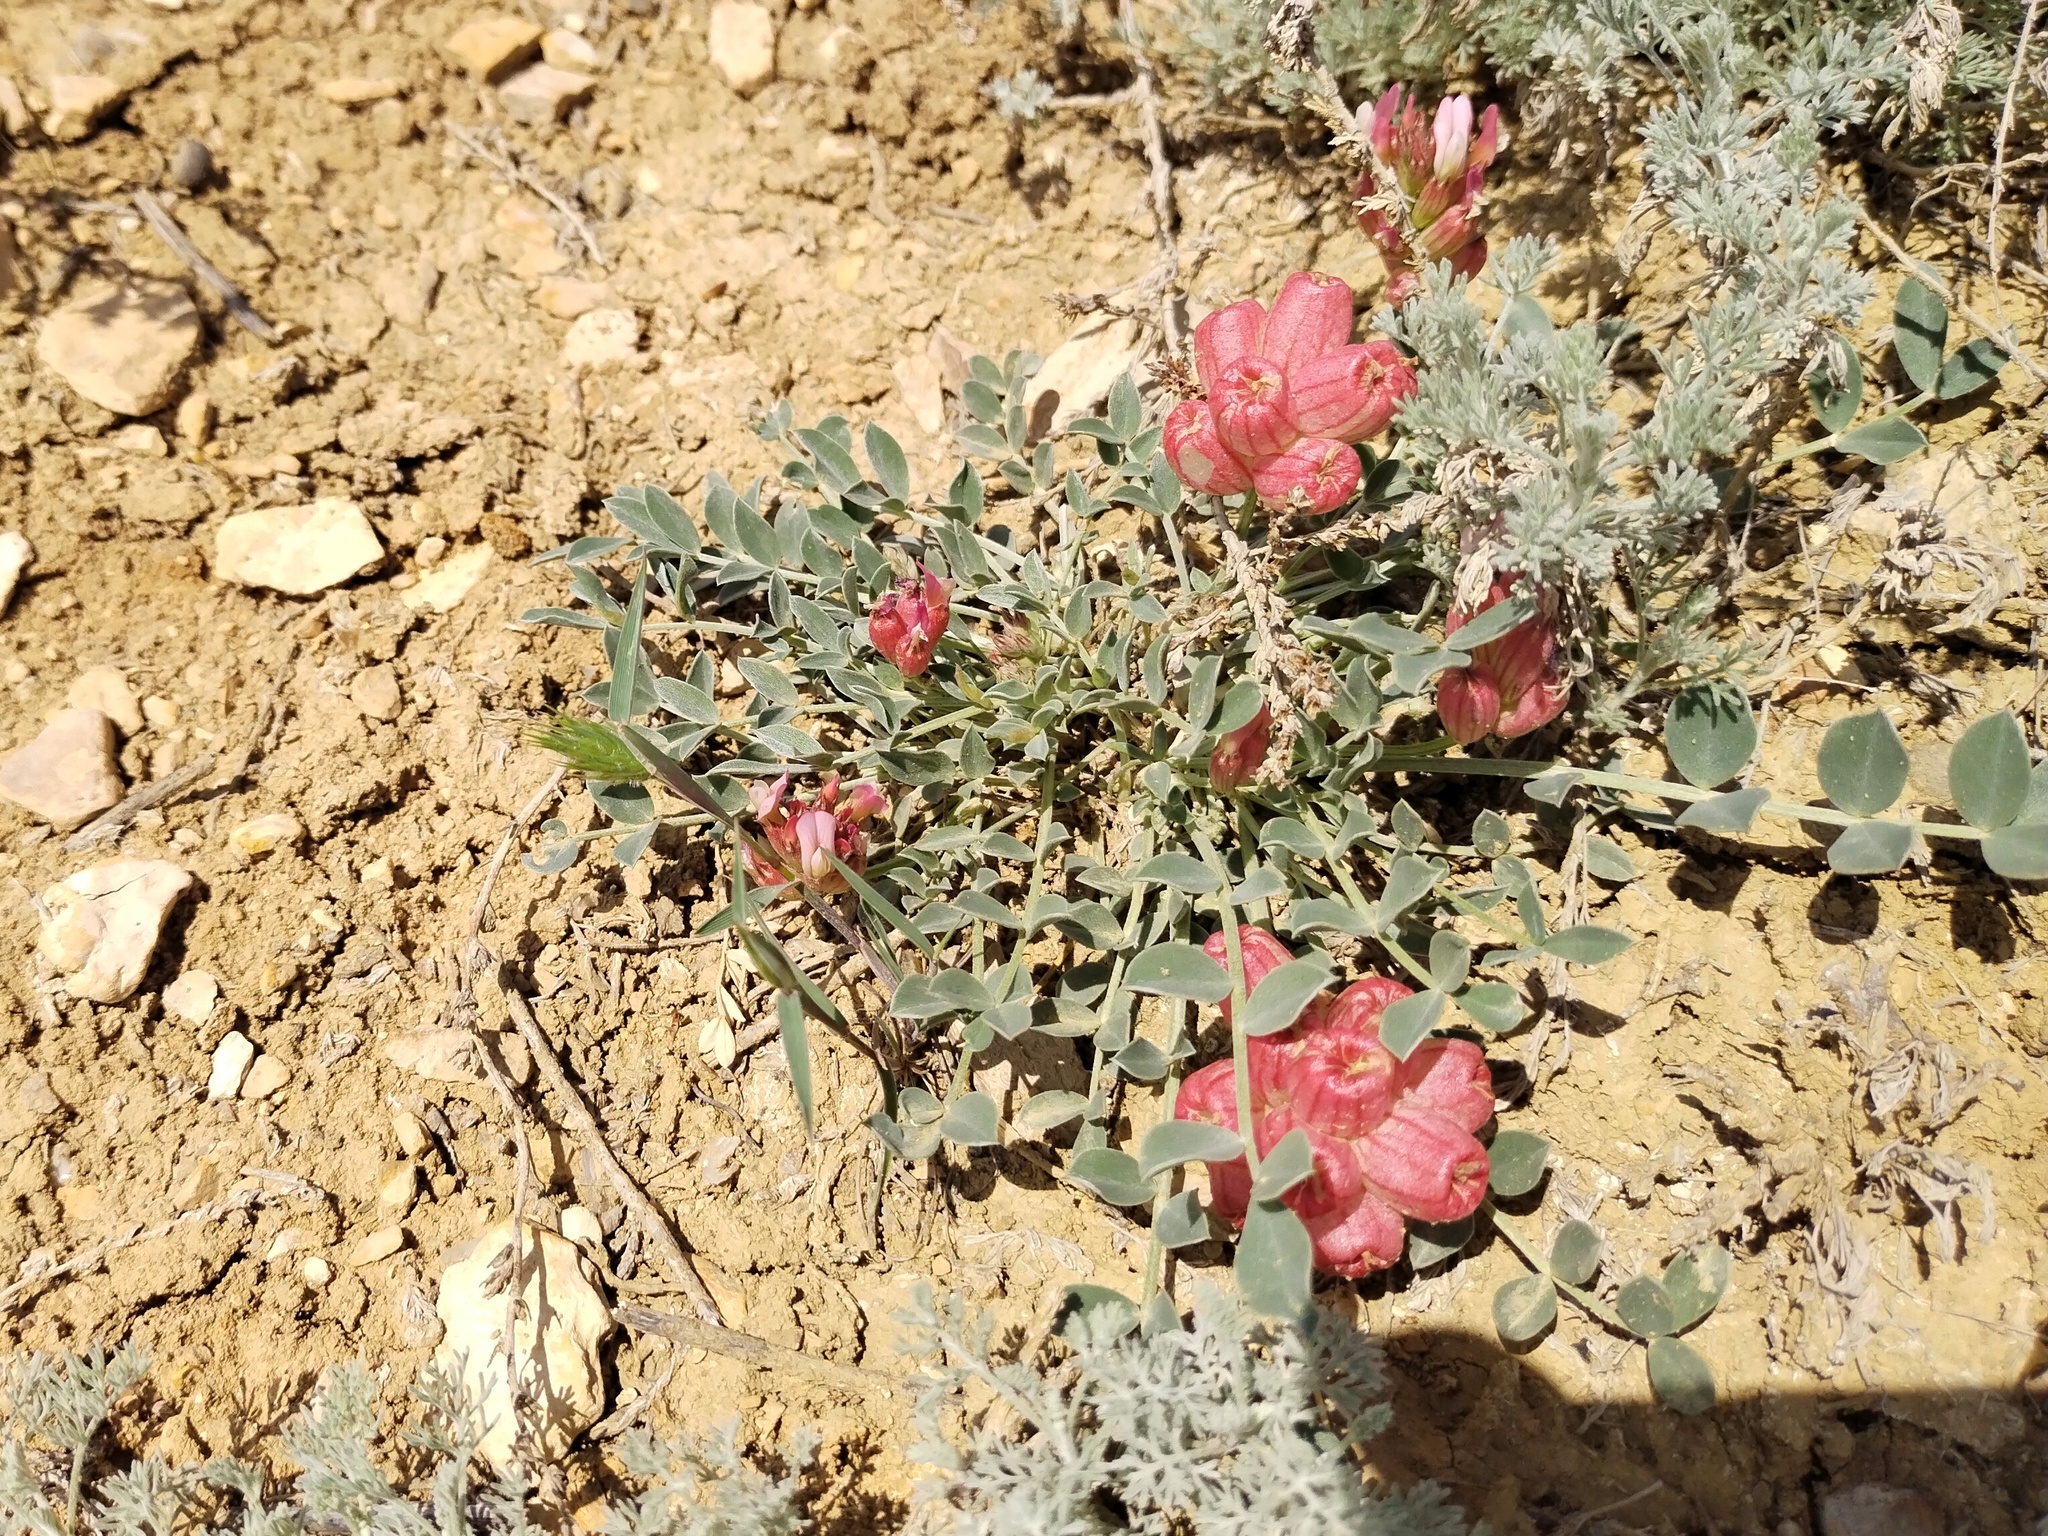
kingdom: Plantae
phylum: Tracheophyta
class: Magnoliopsida
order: Fabales
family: Fabaceae
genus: Astragalus
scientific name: Astragalus calycinus
